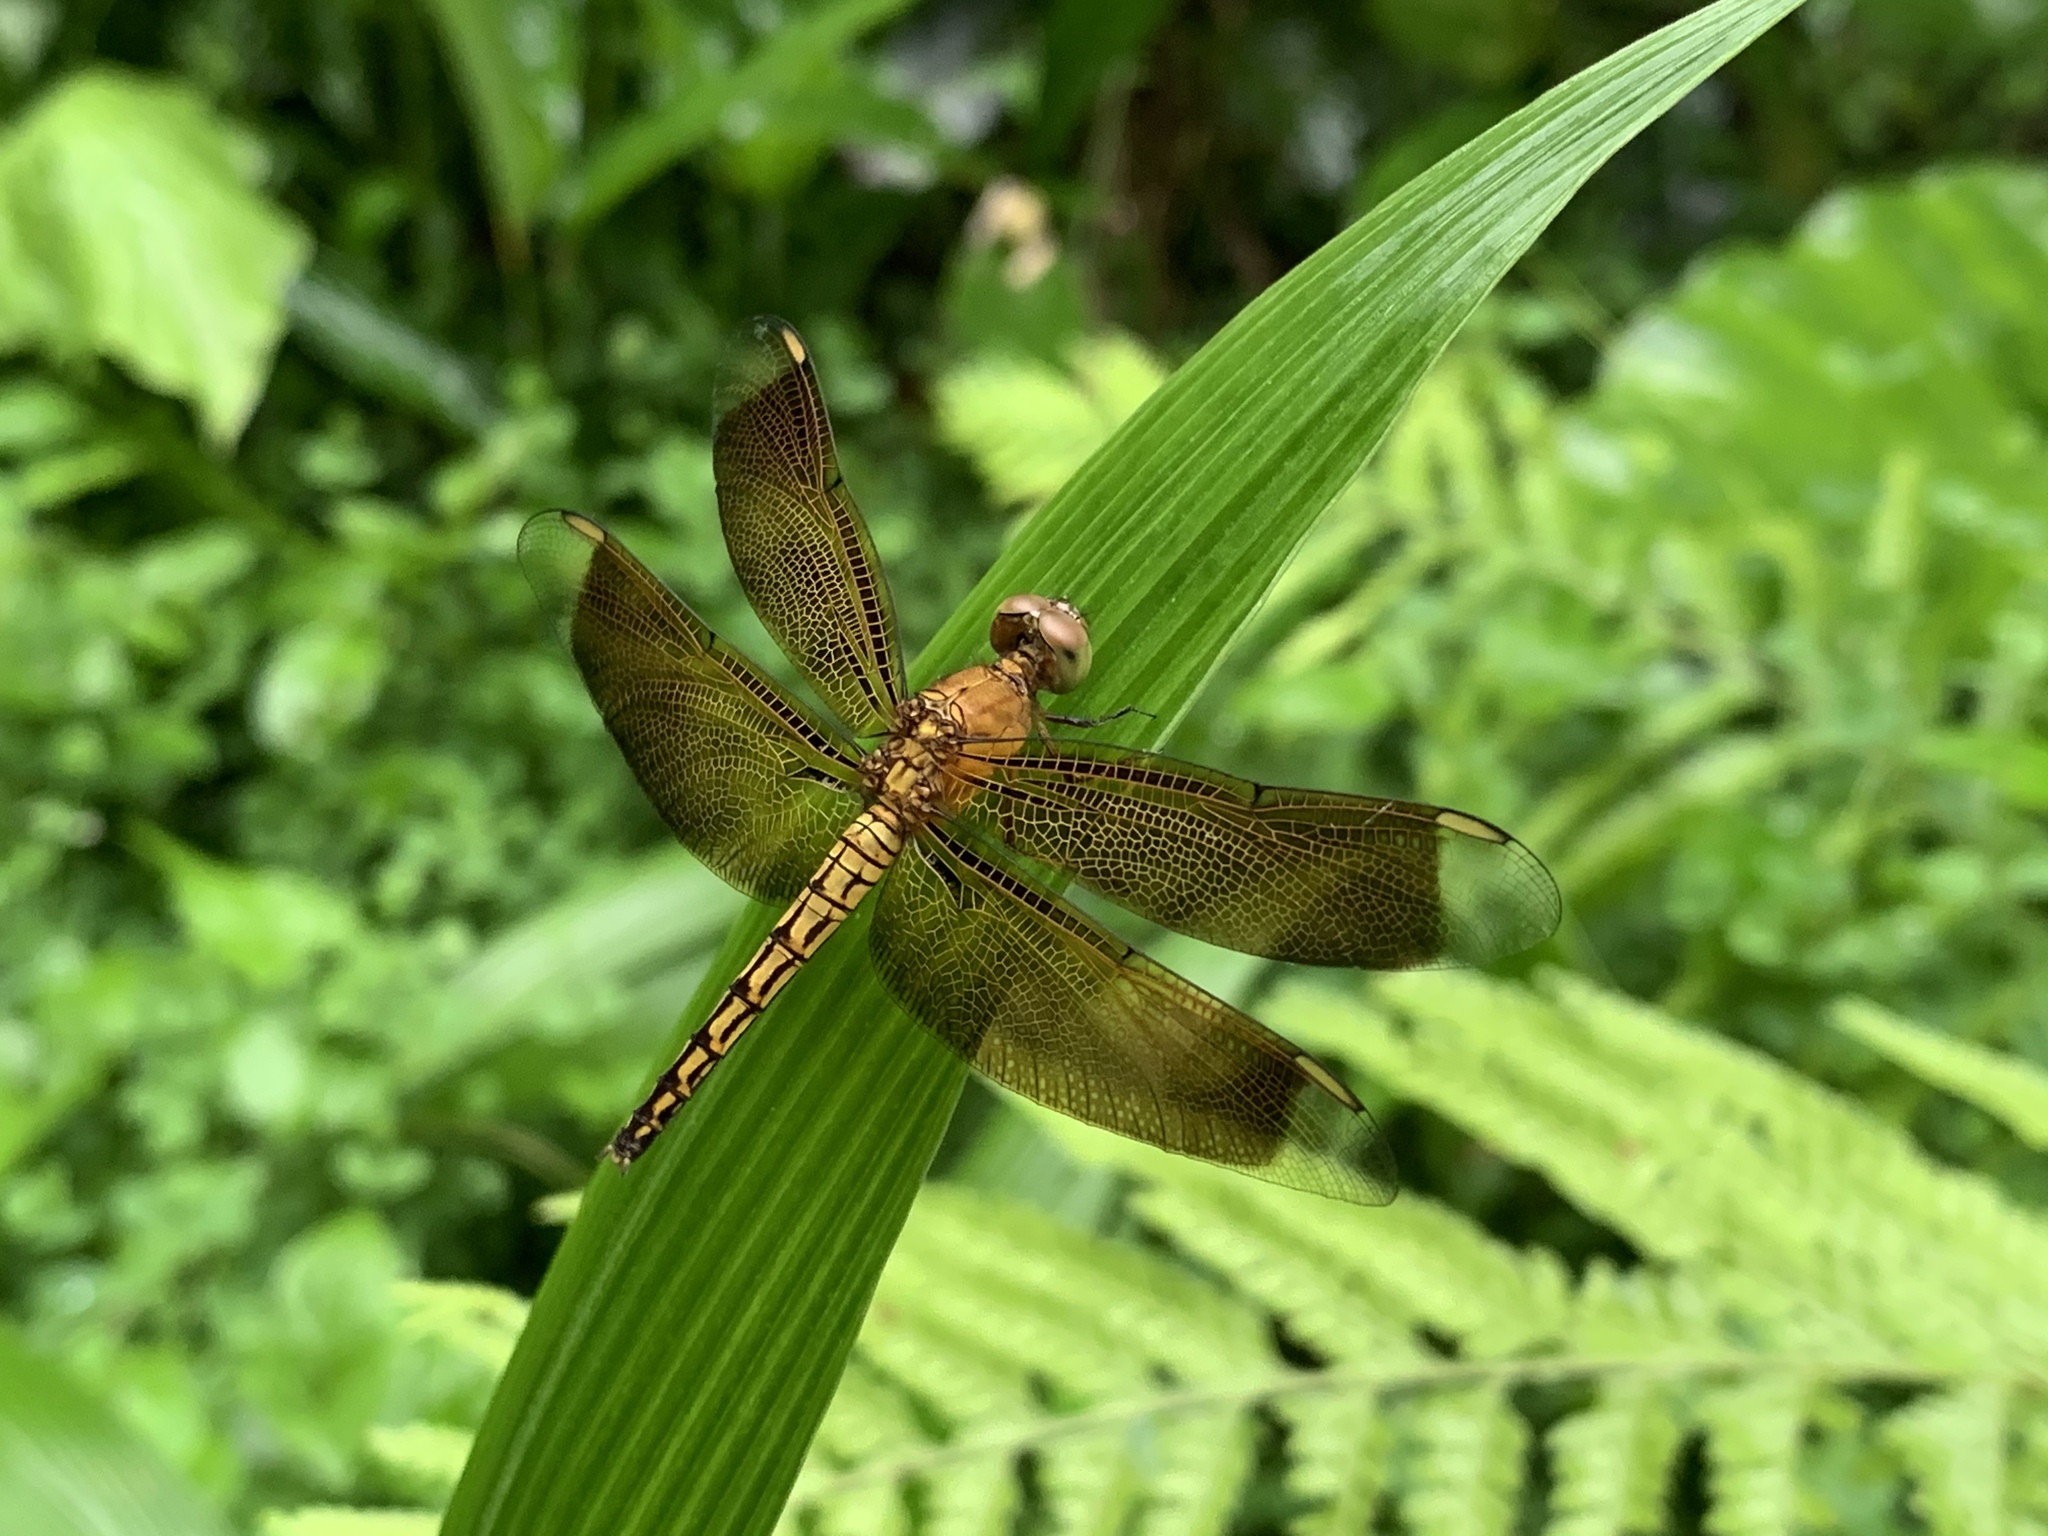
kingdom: Animalia
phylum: Arthropoda
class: Insecta
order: Odonata
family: Libellulidae
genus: Neurothemis
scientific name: Neurothemis taiwanensis
